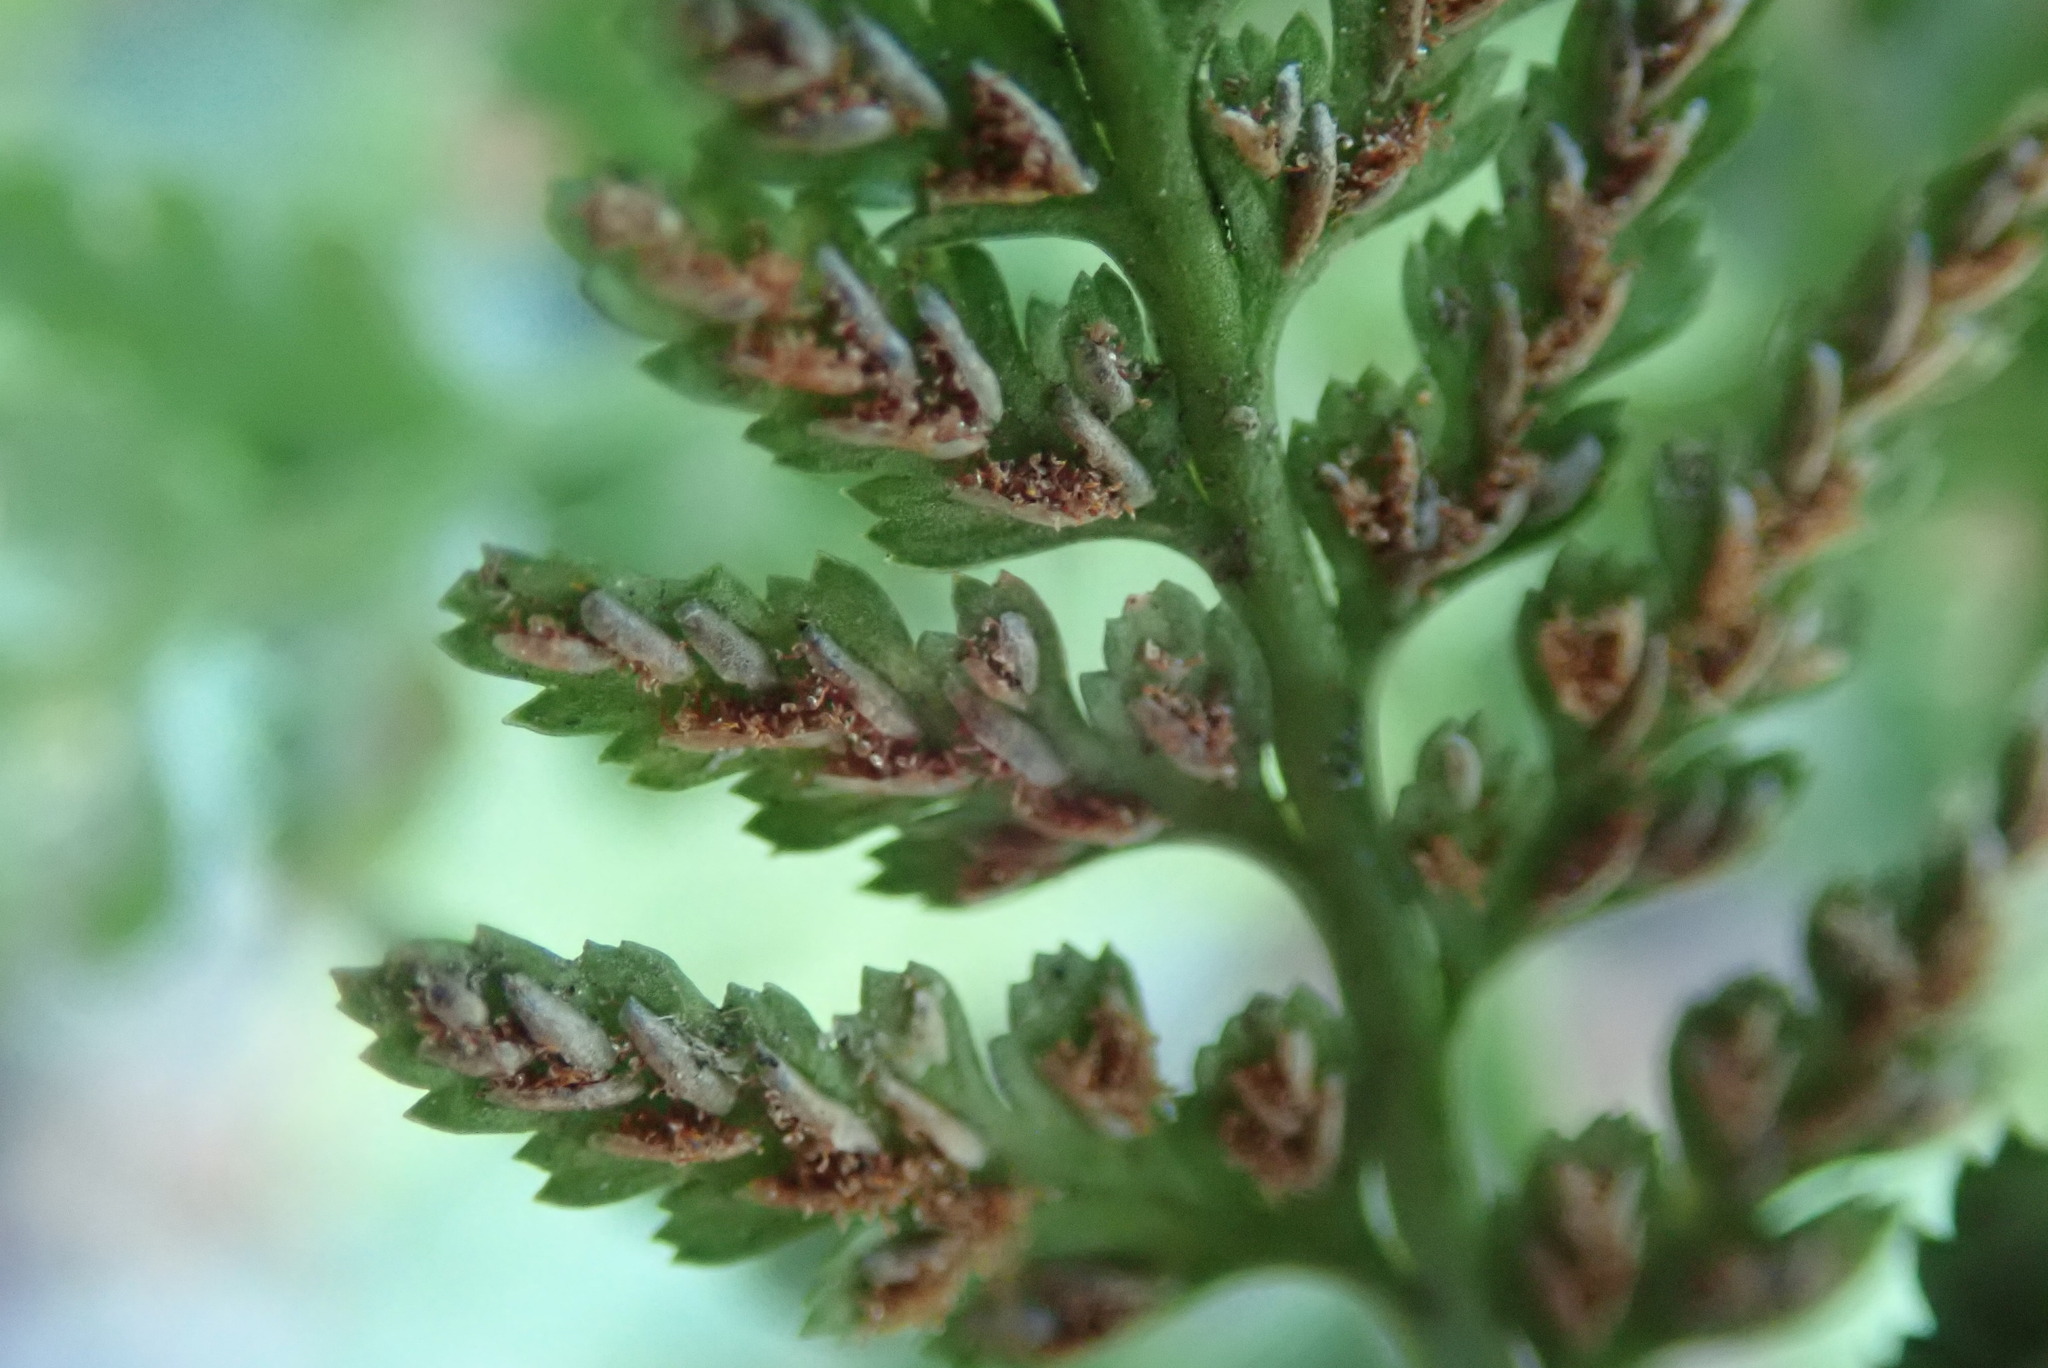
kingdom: Plantae
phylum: Tracheophyta
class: Polypodiopsida
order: Polypodiales
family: Aspleniaceae
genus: Asplenium
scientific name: Asplenium adiantum-nigrum
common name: Black spleenwort
